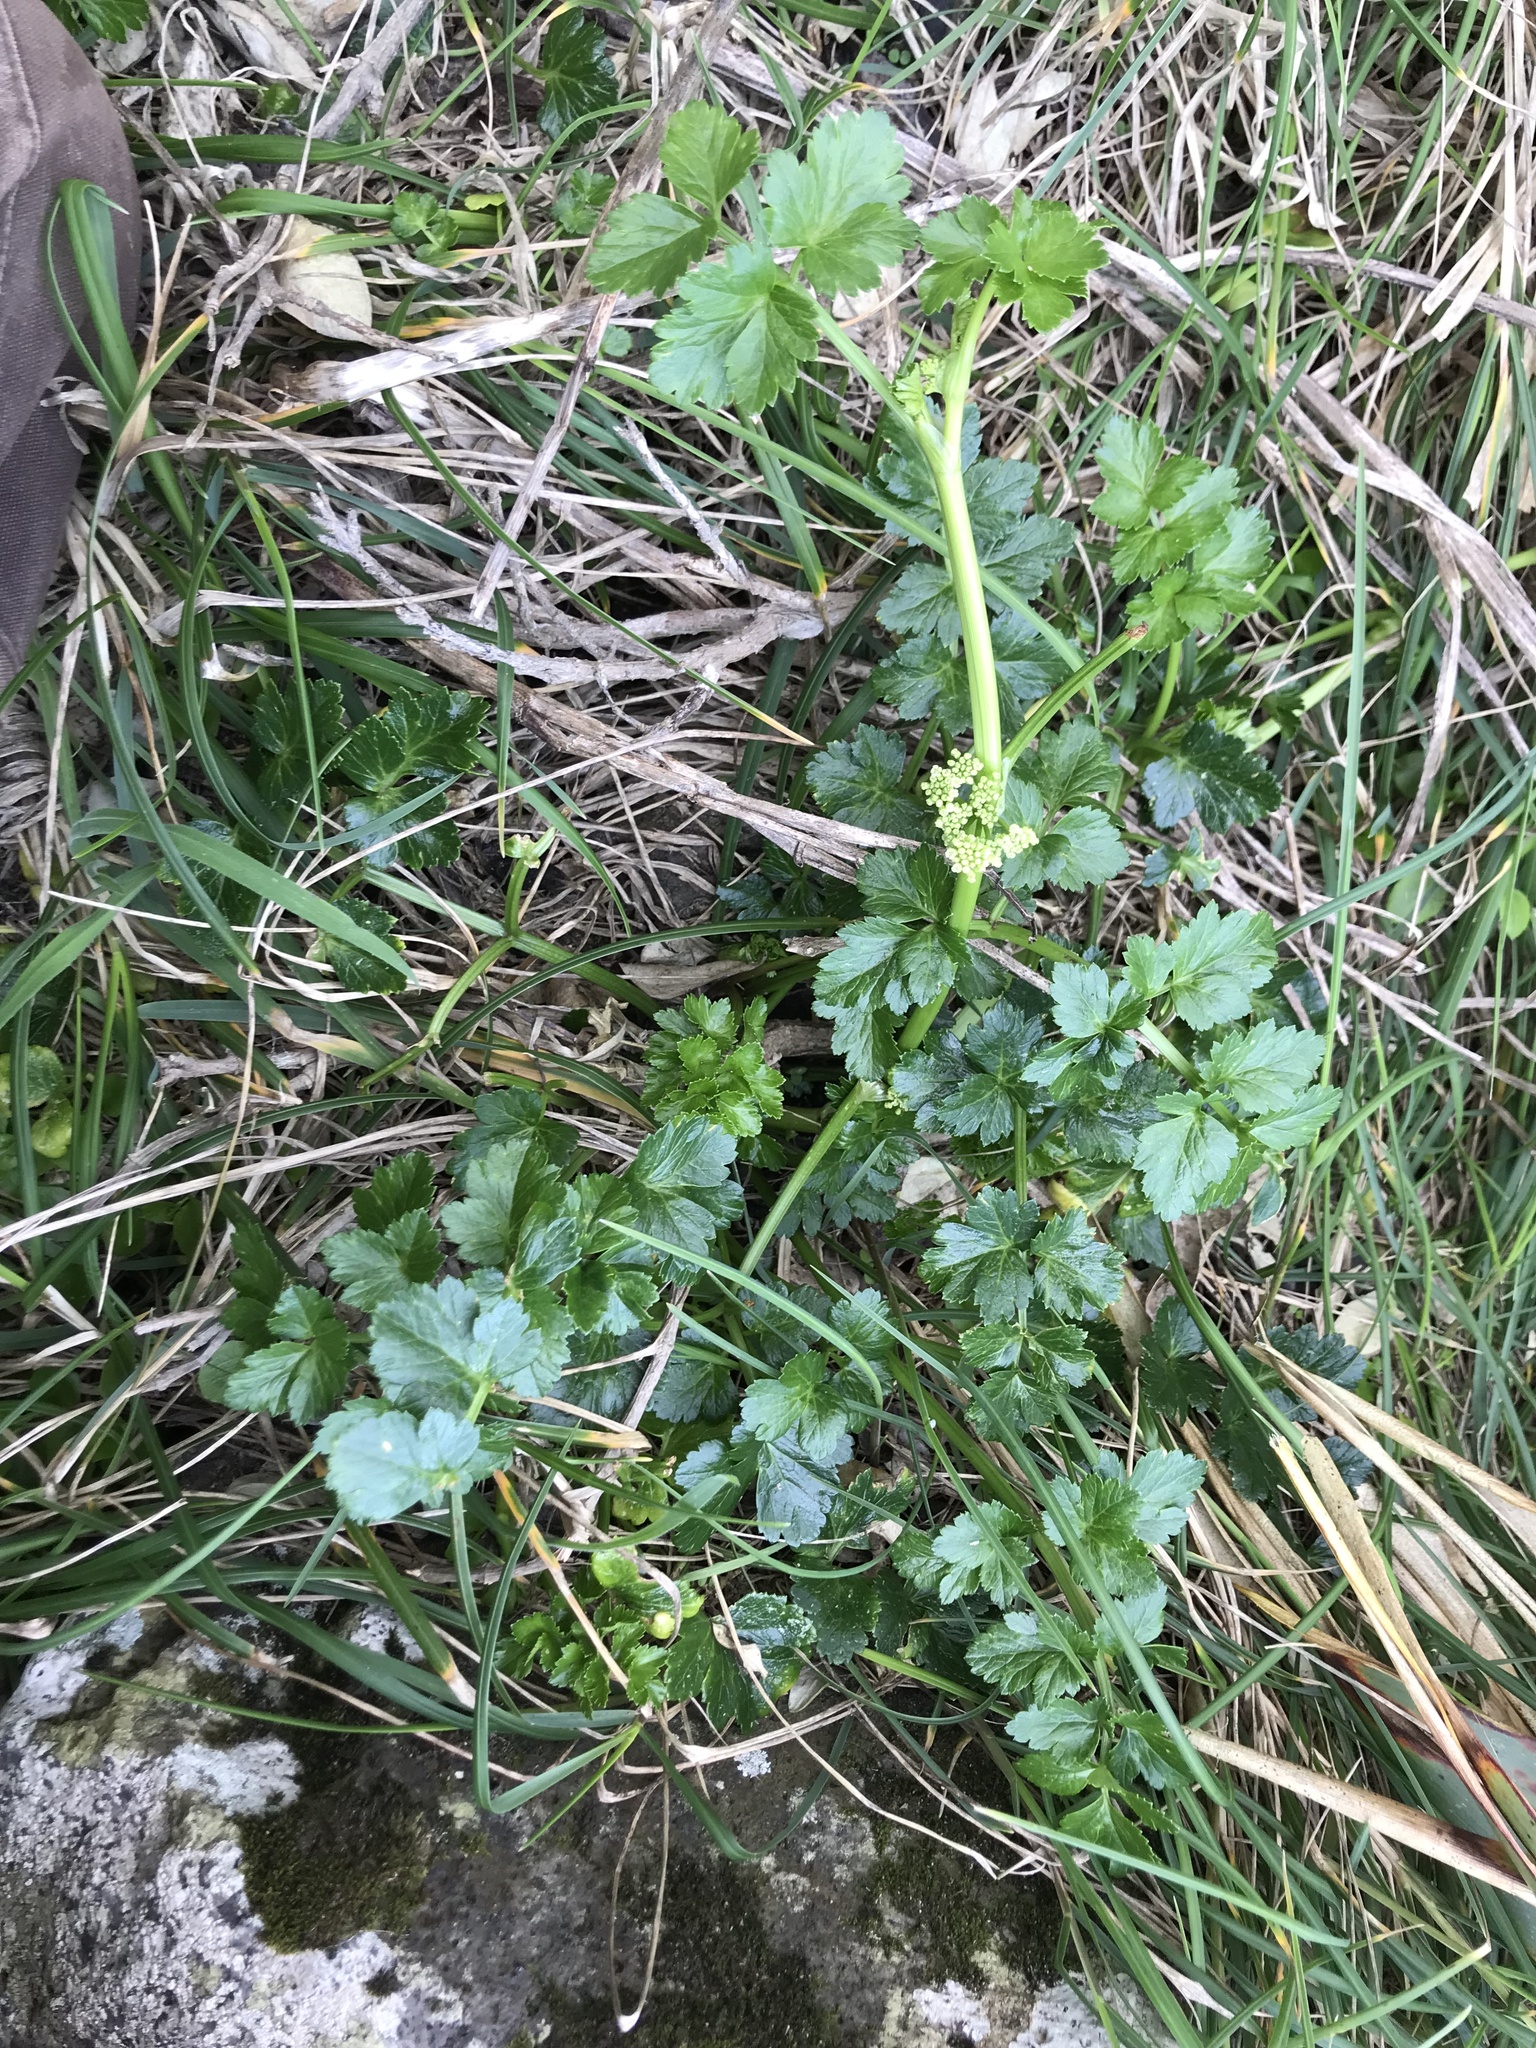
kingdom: Plantae
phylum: Tracheophyta
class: Magnoliopsida
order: Apiales
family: Apiaceae
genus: Apium
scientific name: Apium prostratum
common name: Prostrate marshwort
